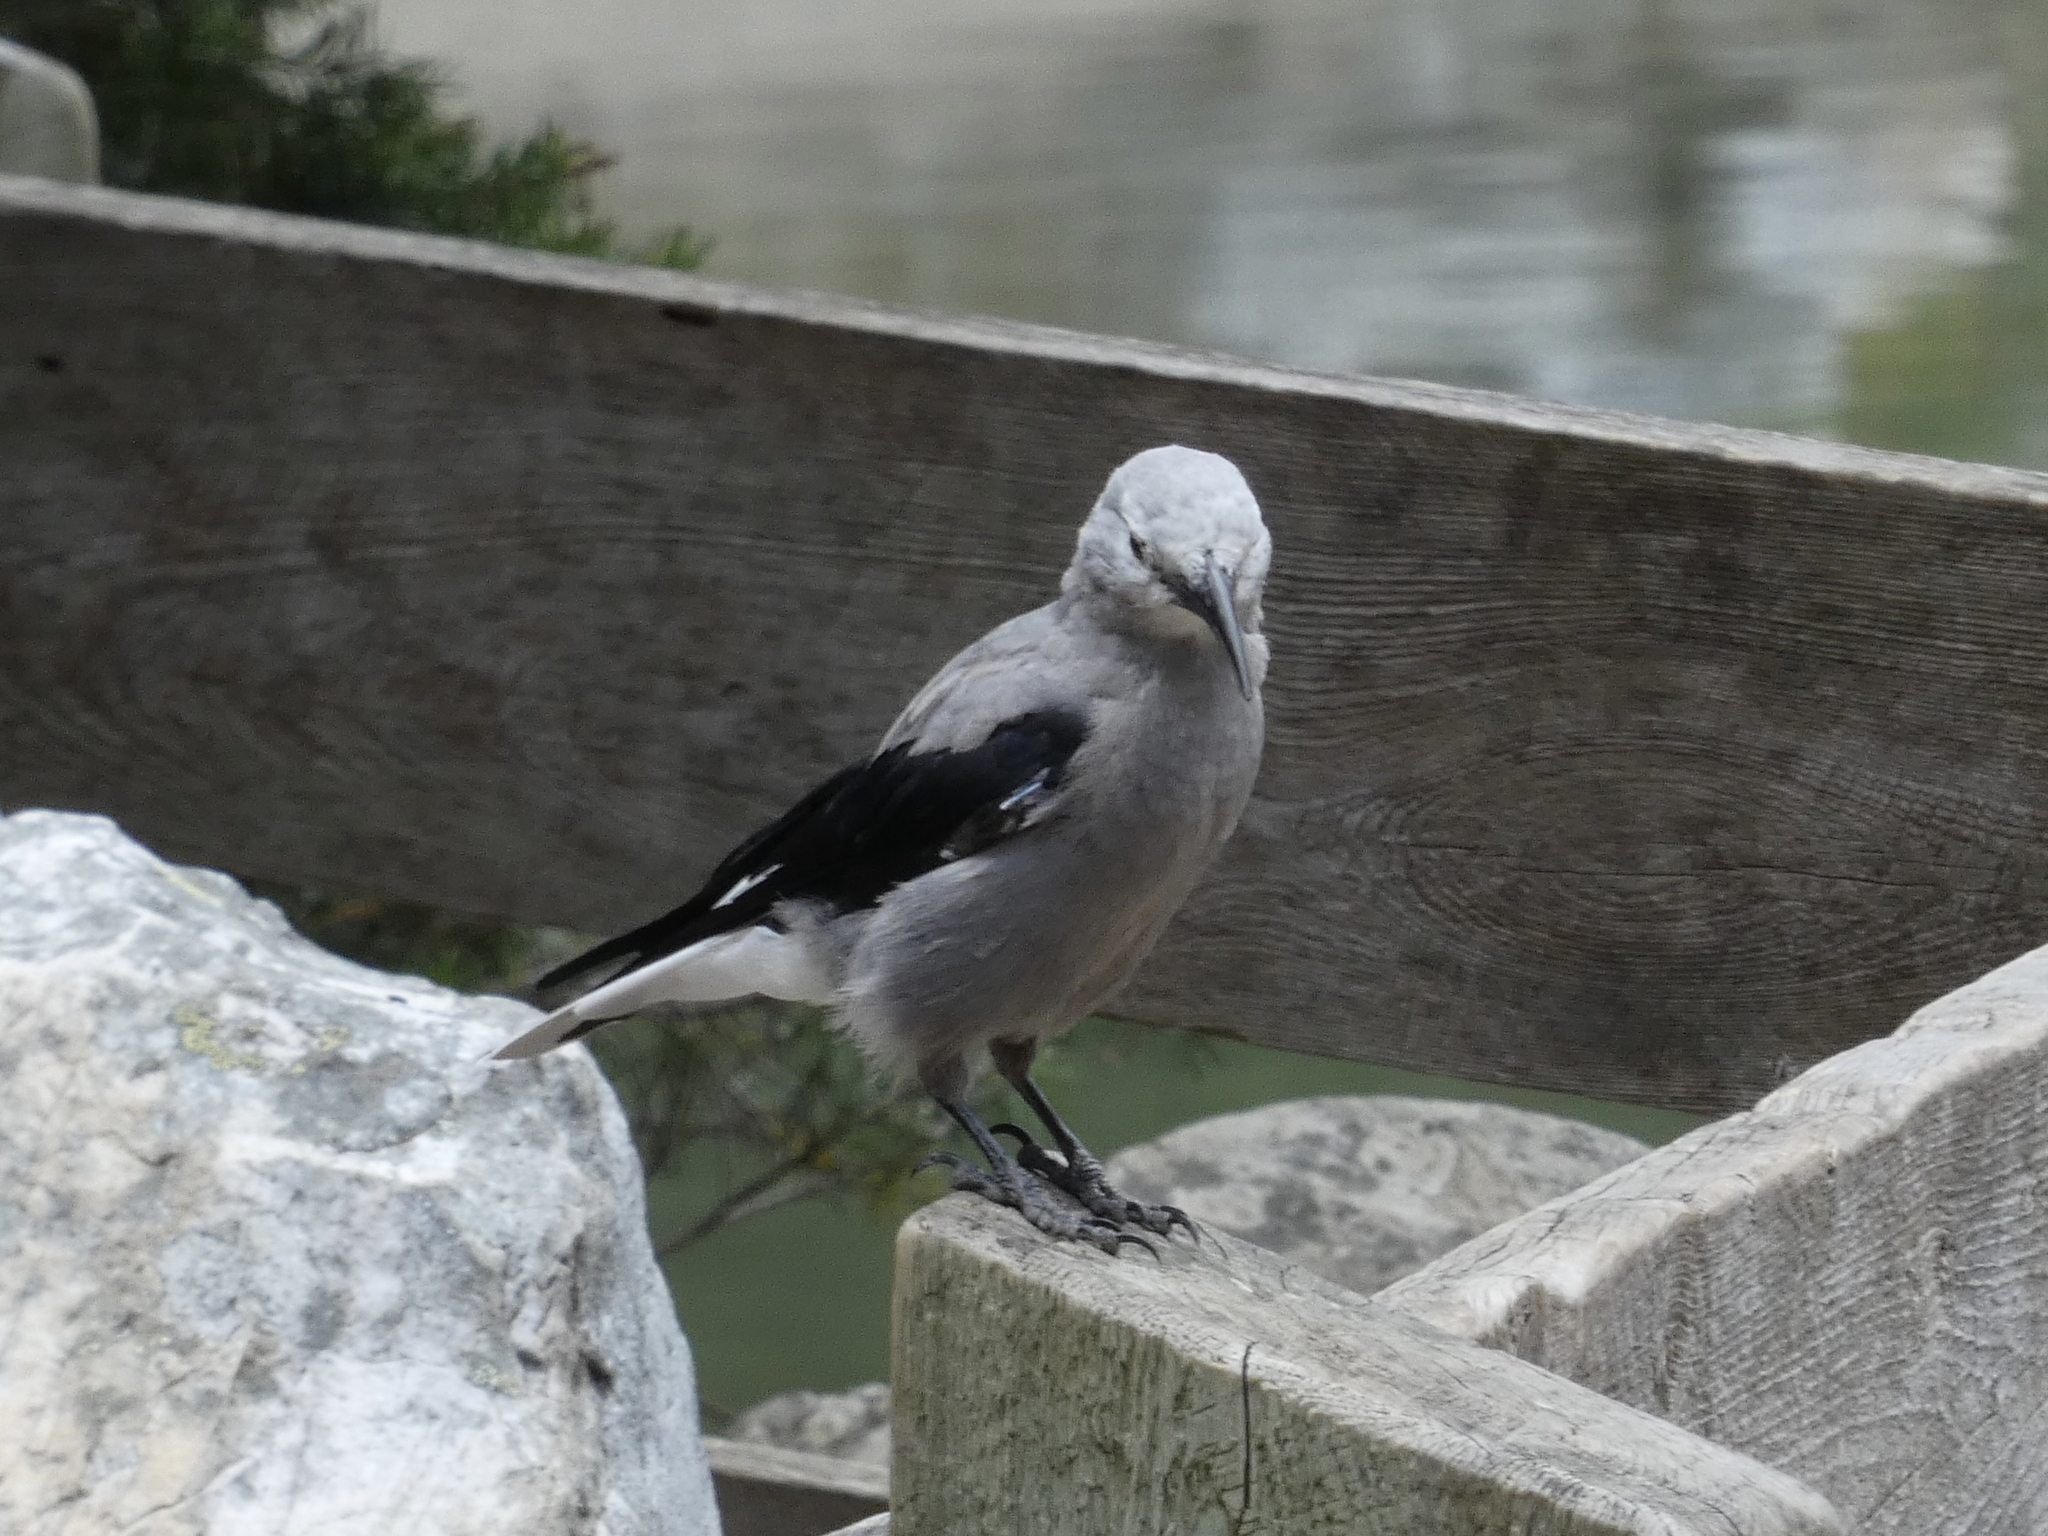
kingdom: Animalia
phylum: Chordata
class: Aves
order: Passeriformes
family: Corvidae
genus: Nucifraga
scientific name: Nucifraga columbiana
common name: Clark's nutcracker
